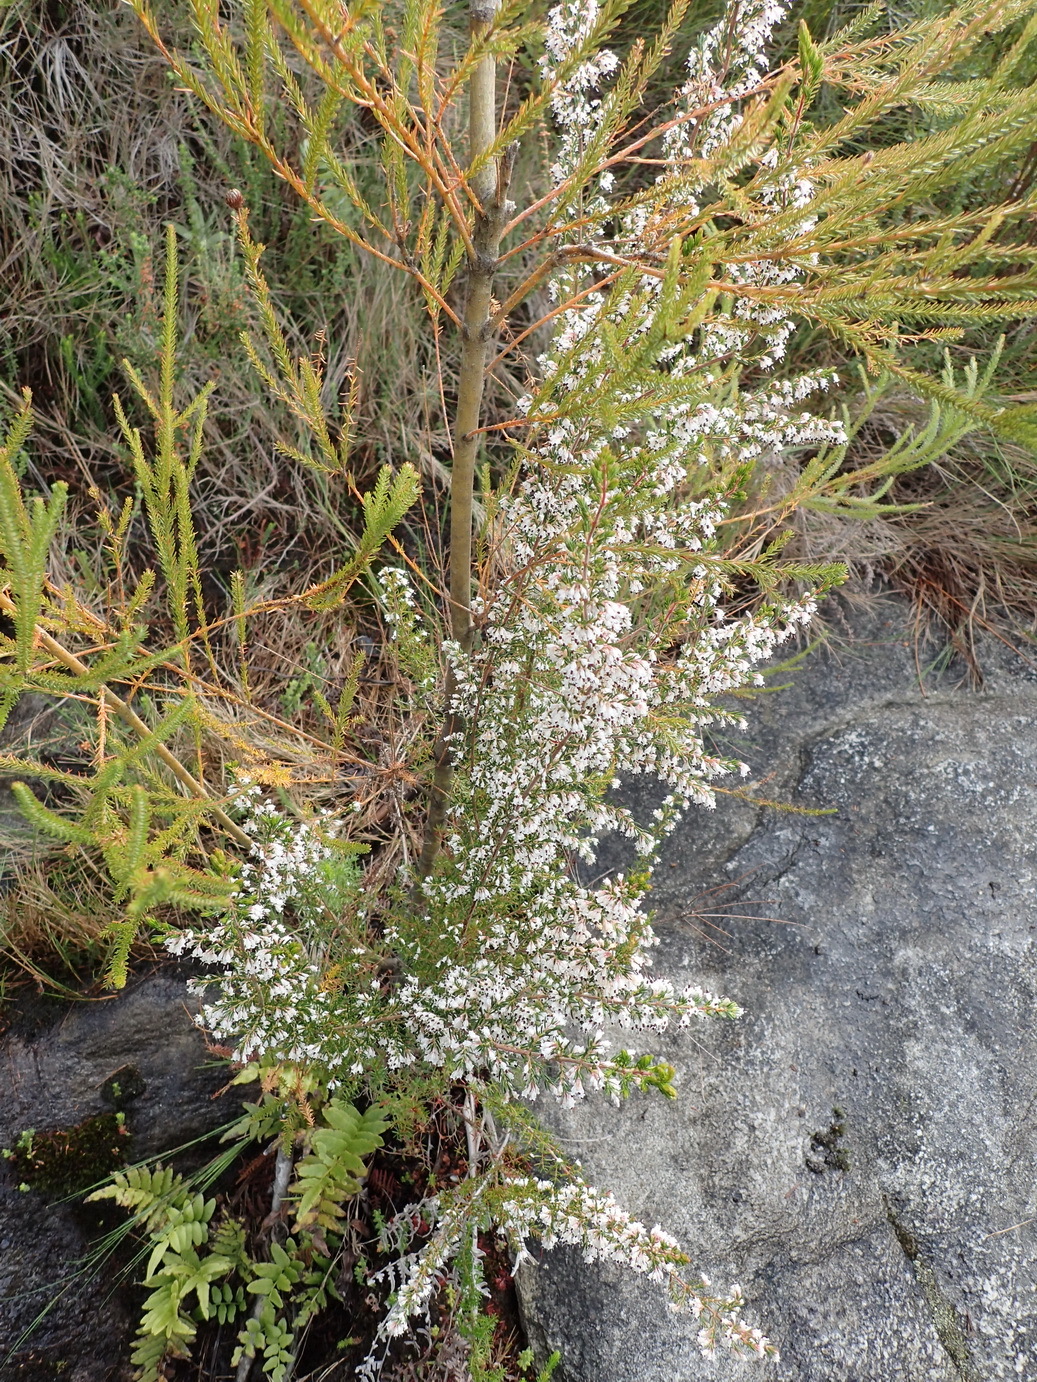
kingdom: Plantae
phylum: Tracheophyta
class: Magnoliopsida
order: Ericales
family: Ericaceae
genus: Erica
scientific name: Erica fuscescens
